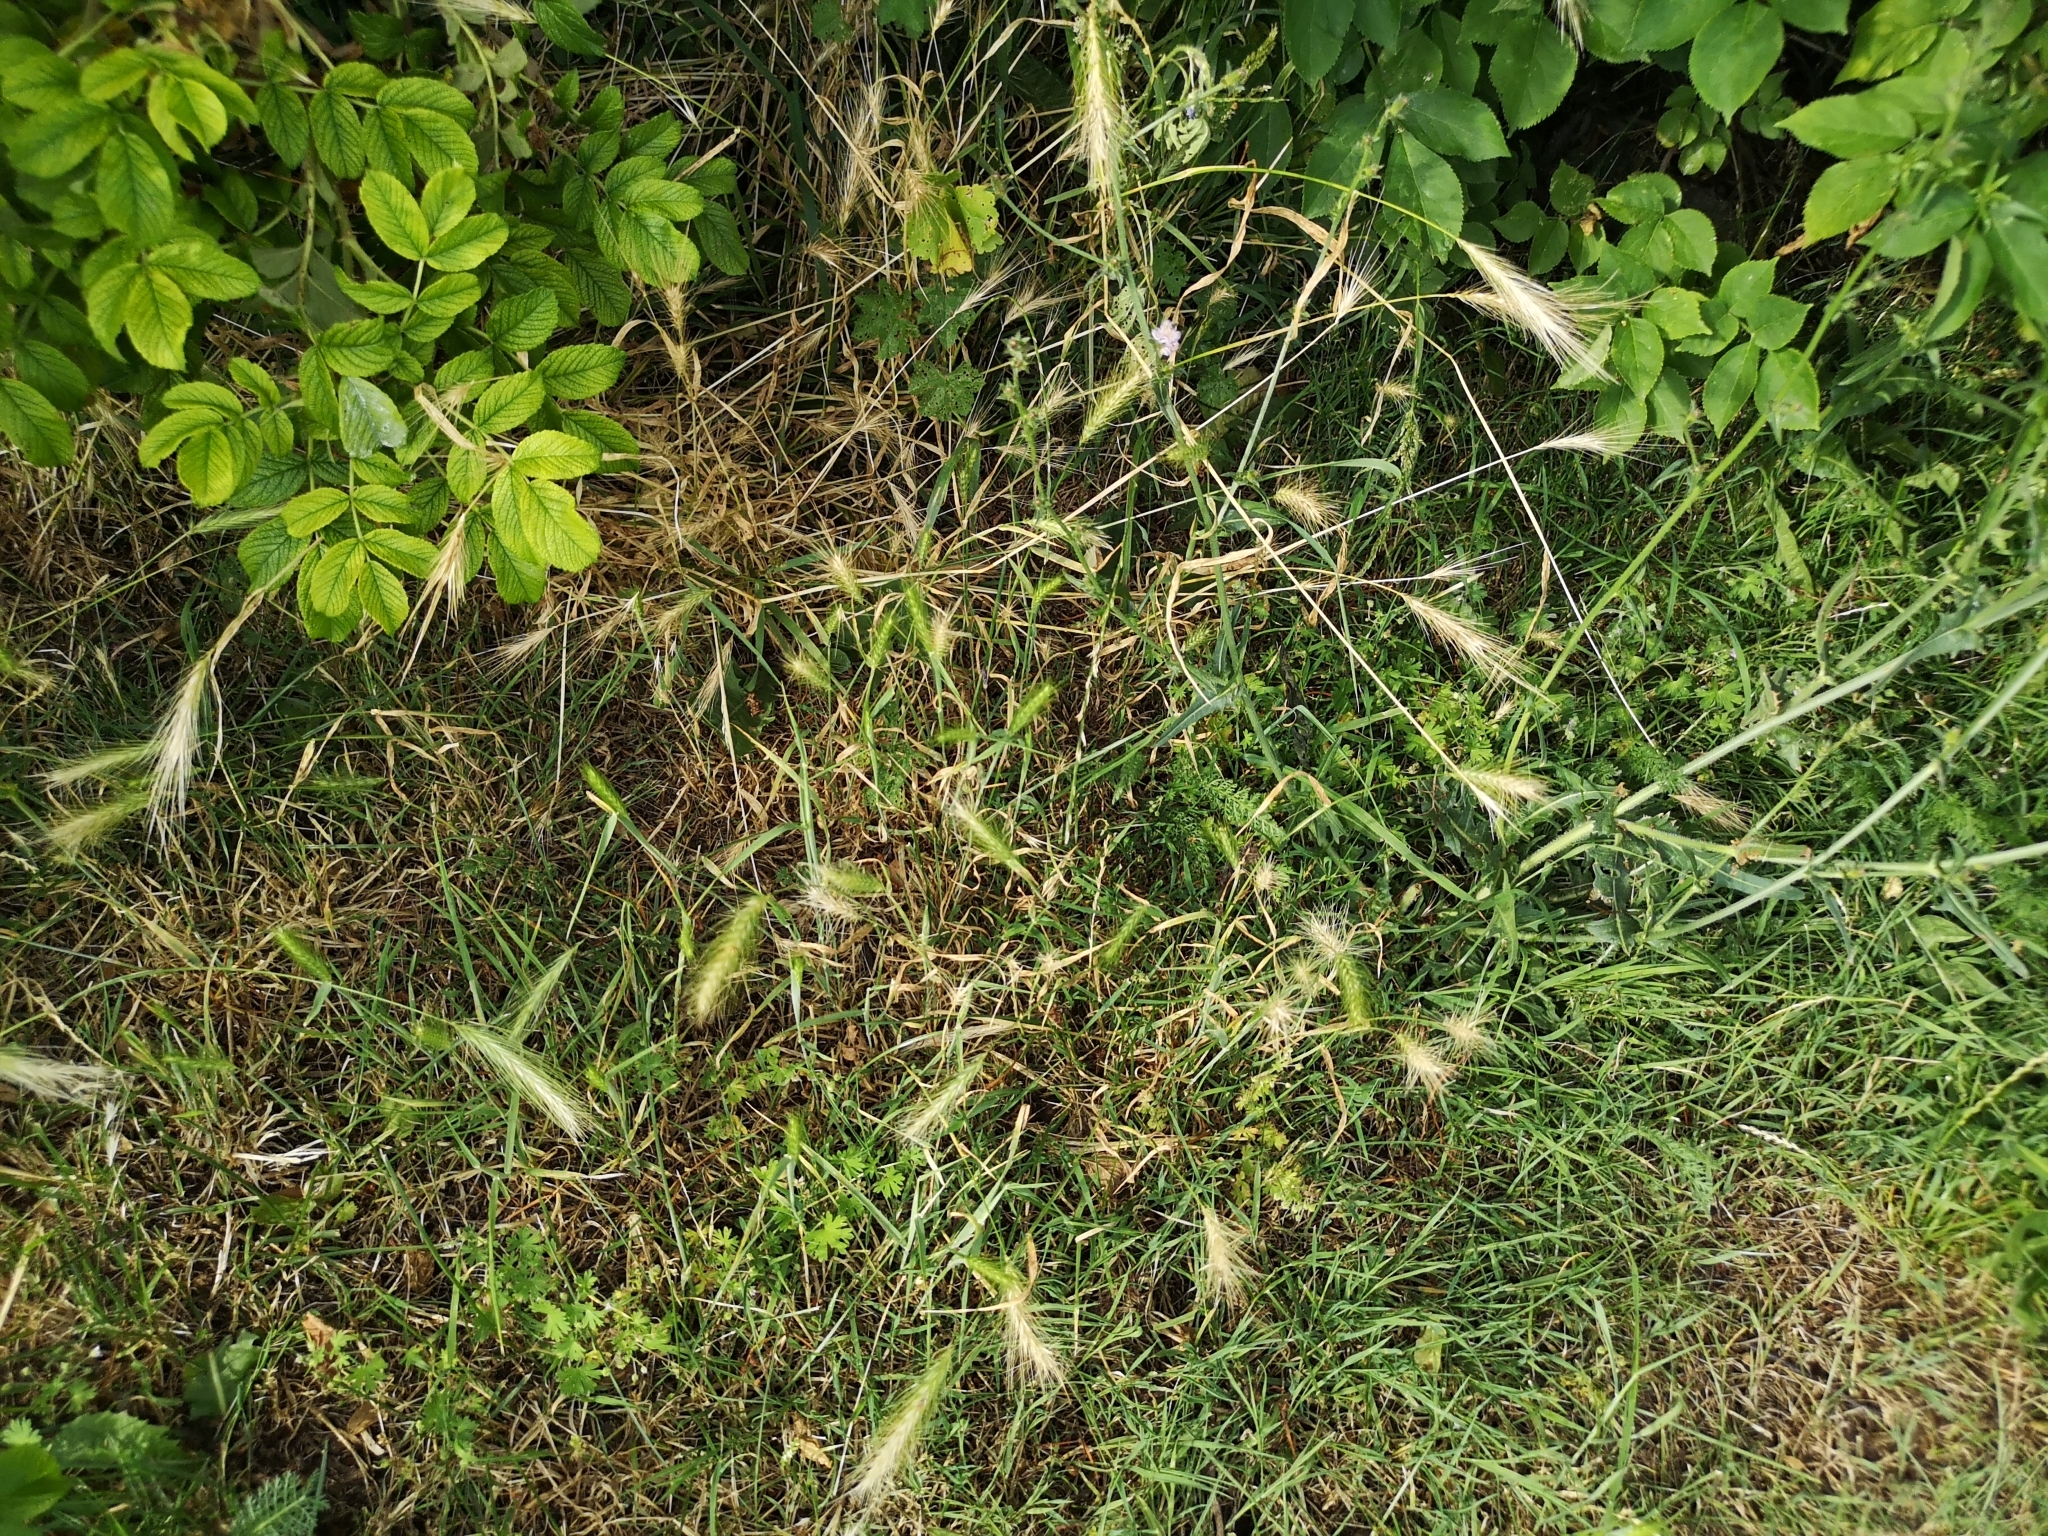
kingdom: Plantae
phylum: Tracheophyta
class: Liliopsida
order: Poales
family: Poaceae
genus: Hordeum
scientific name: Hordeum murinum
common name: Wall barley
